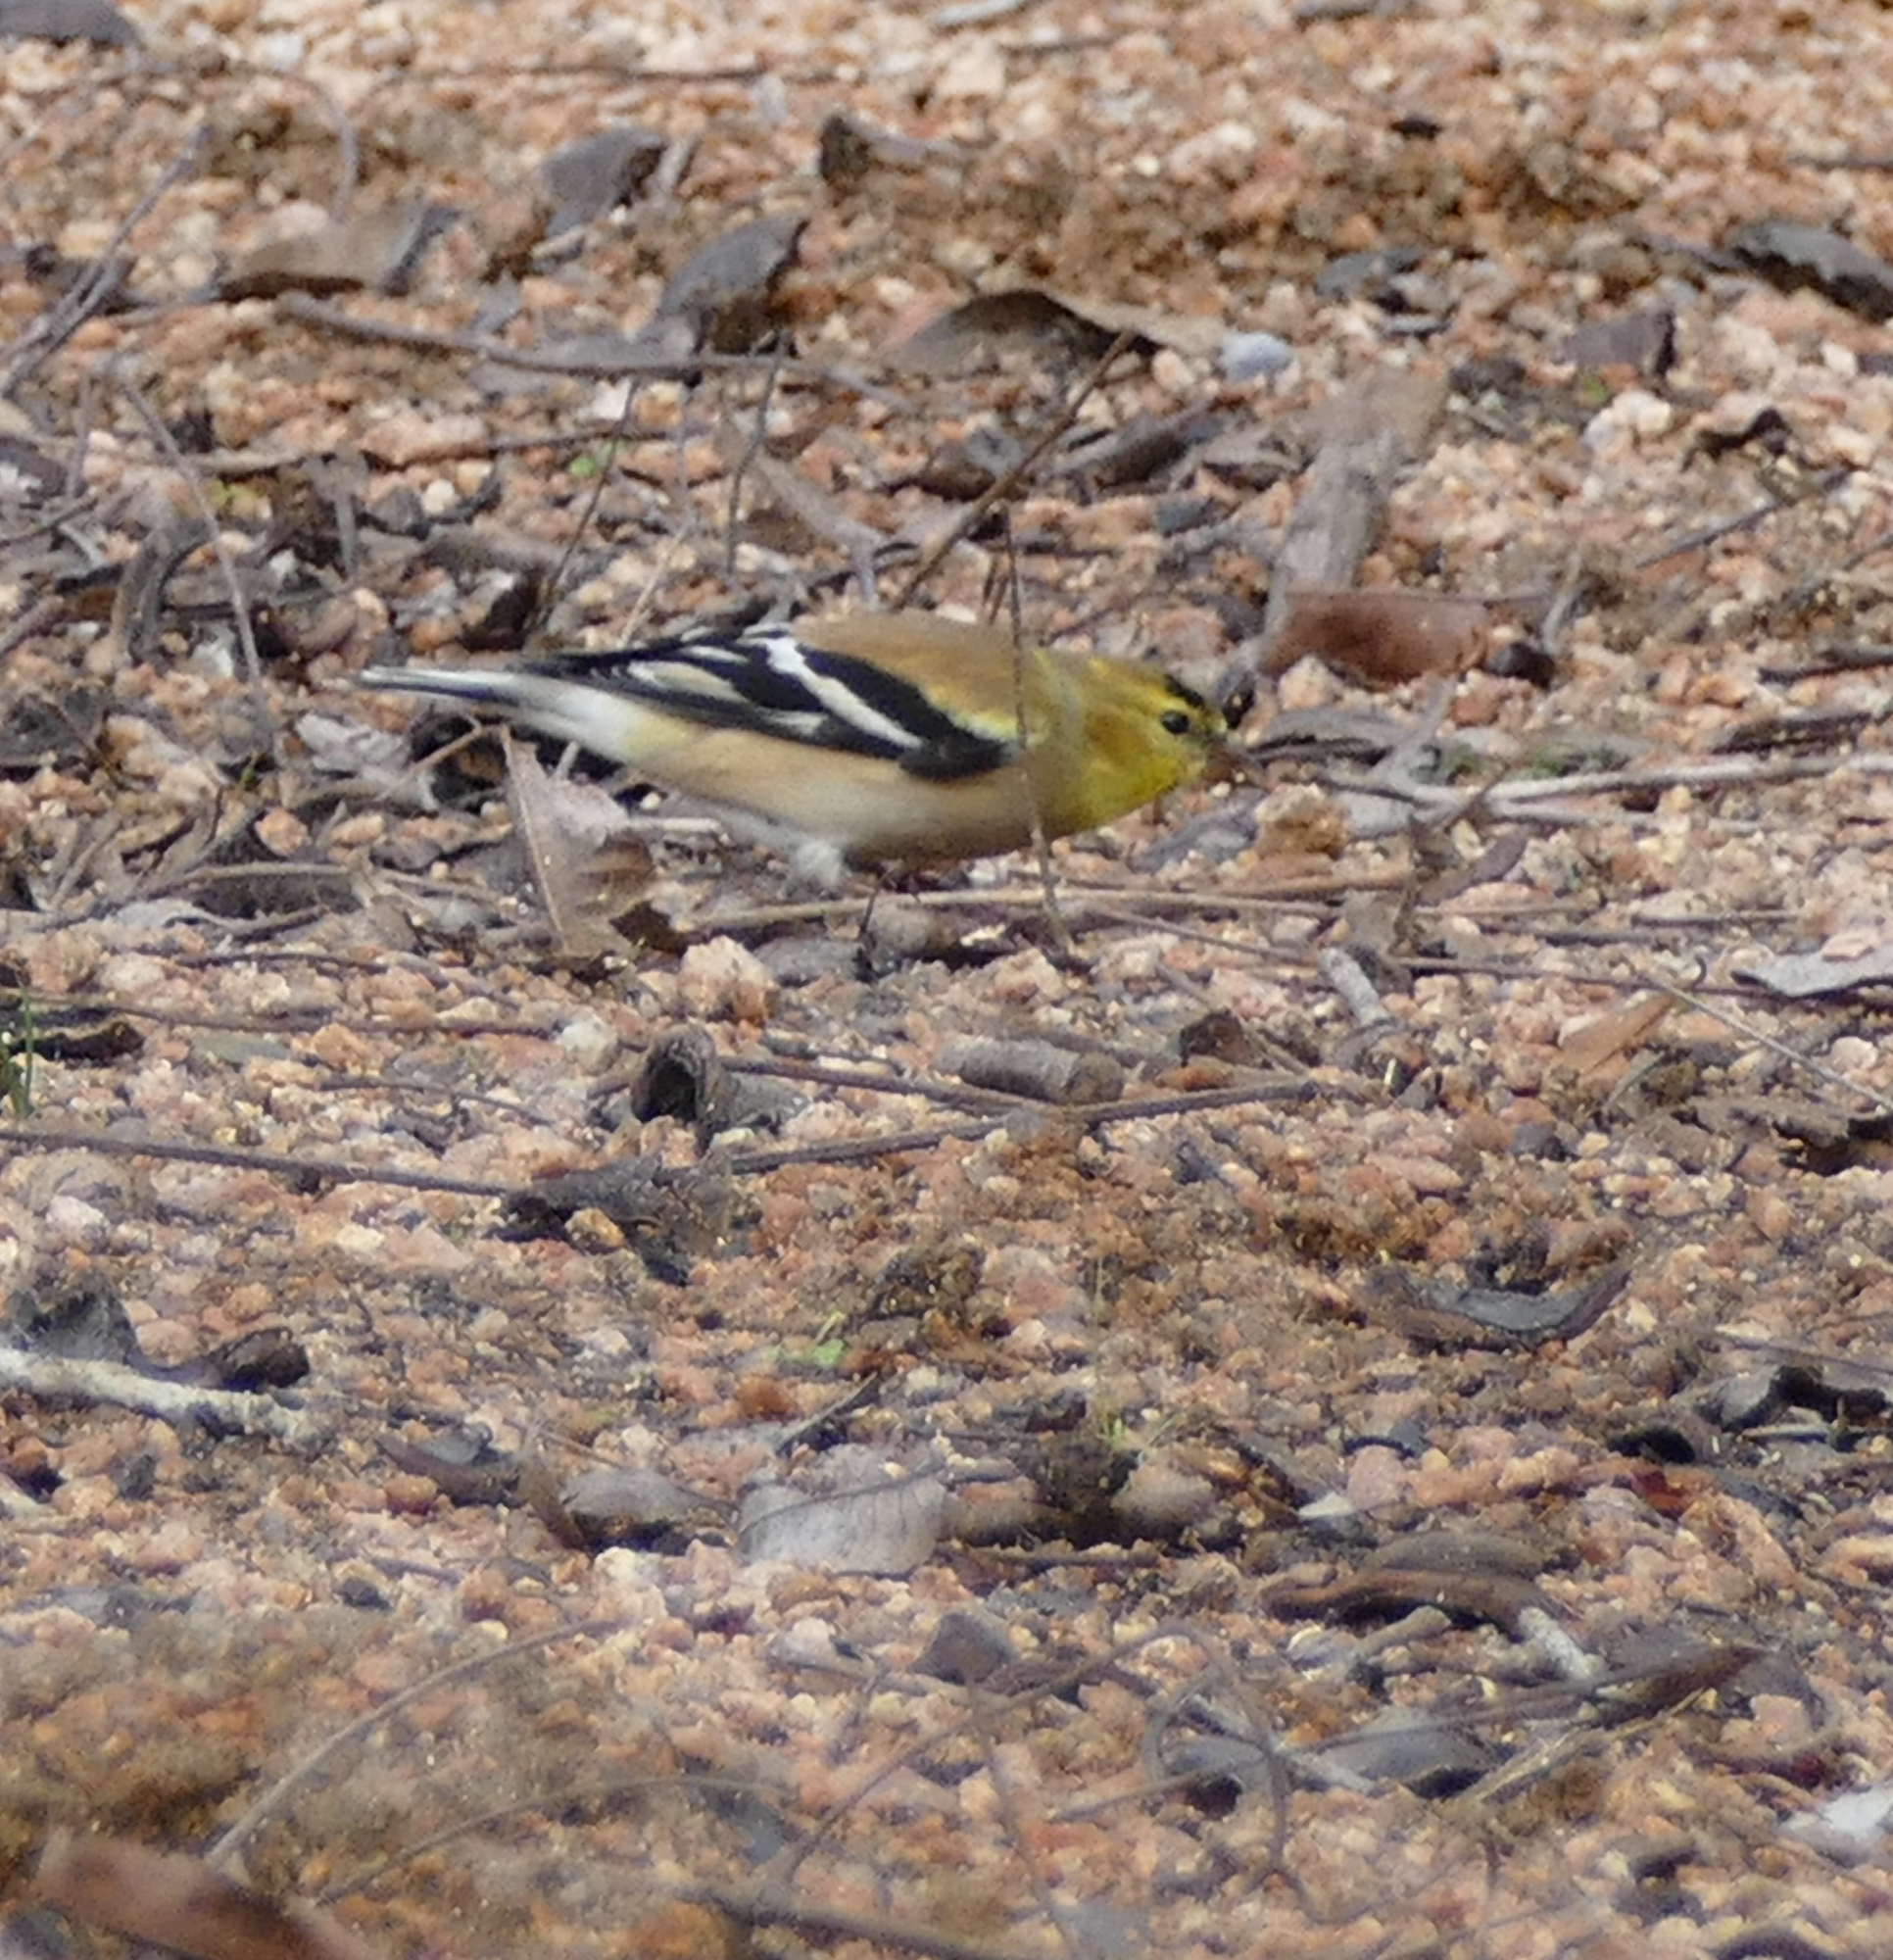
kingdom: Animalia
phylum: Chordata
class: Aves
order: Passeriformes
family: Fringillidae
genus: Spinus
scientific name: Spinus tristis
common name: American goldfinch
